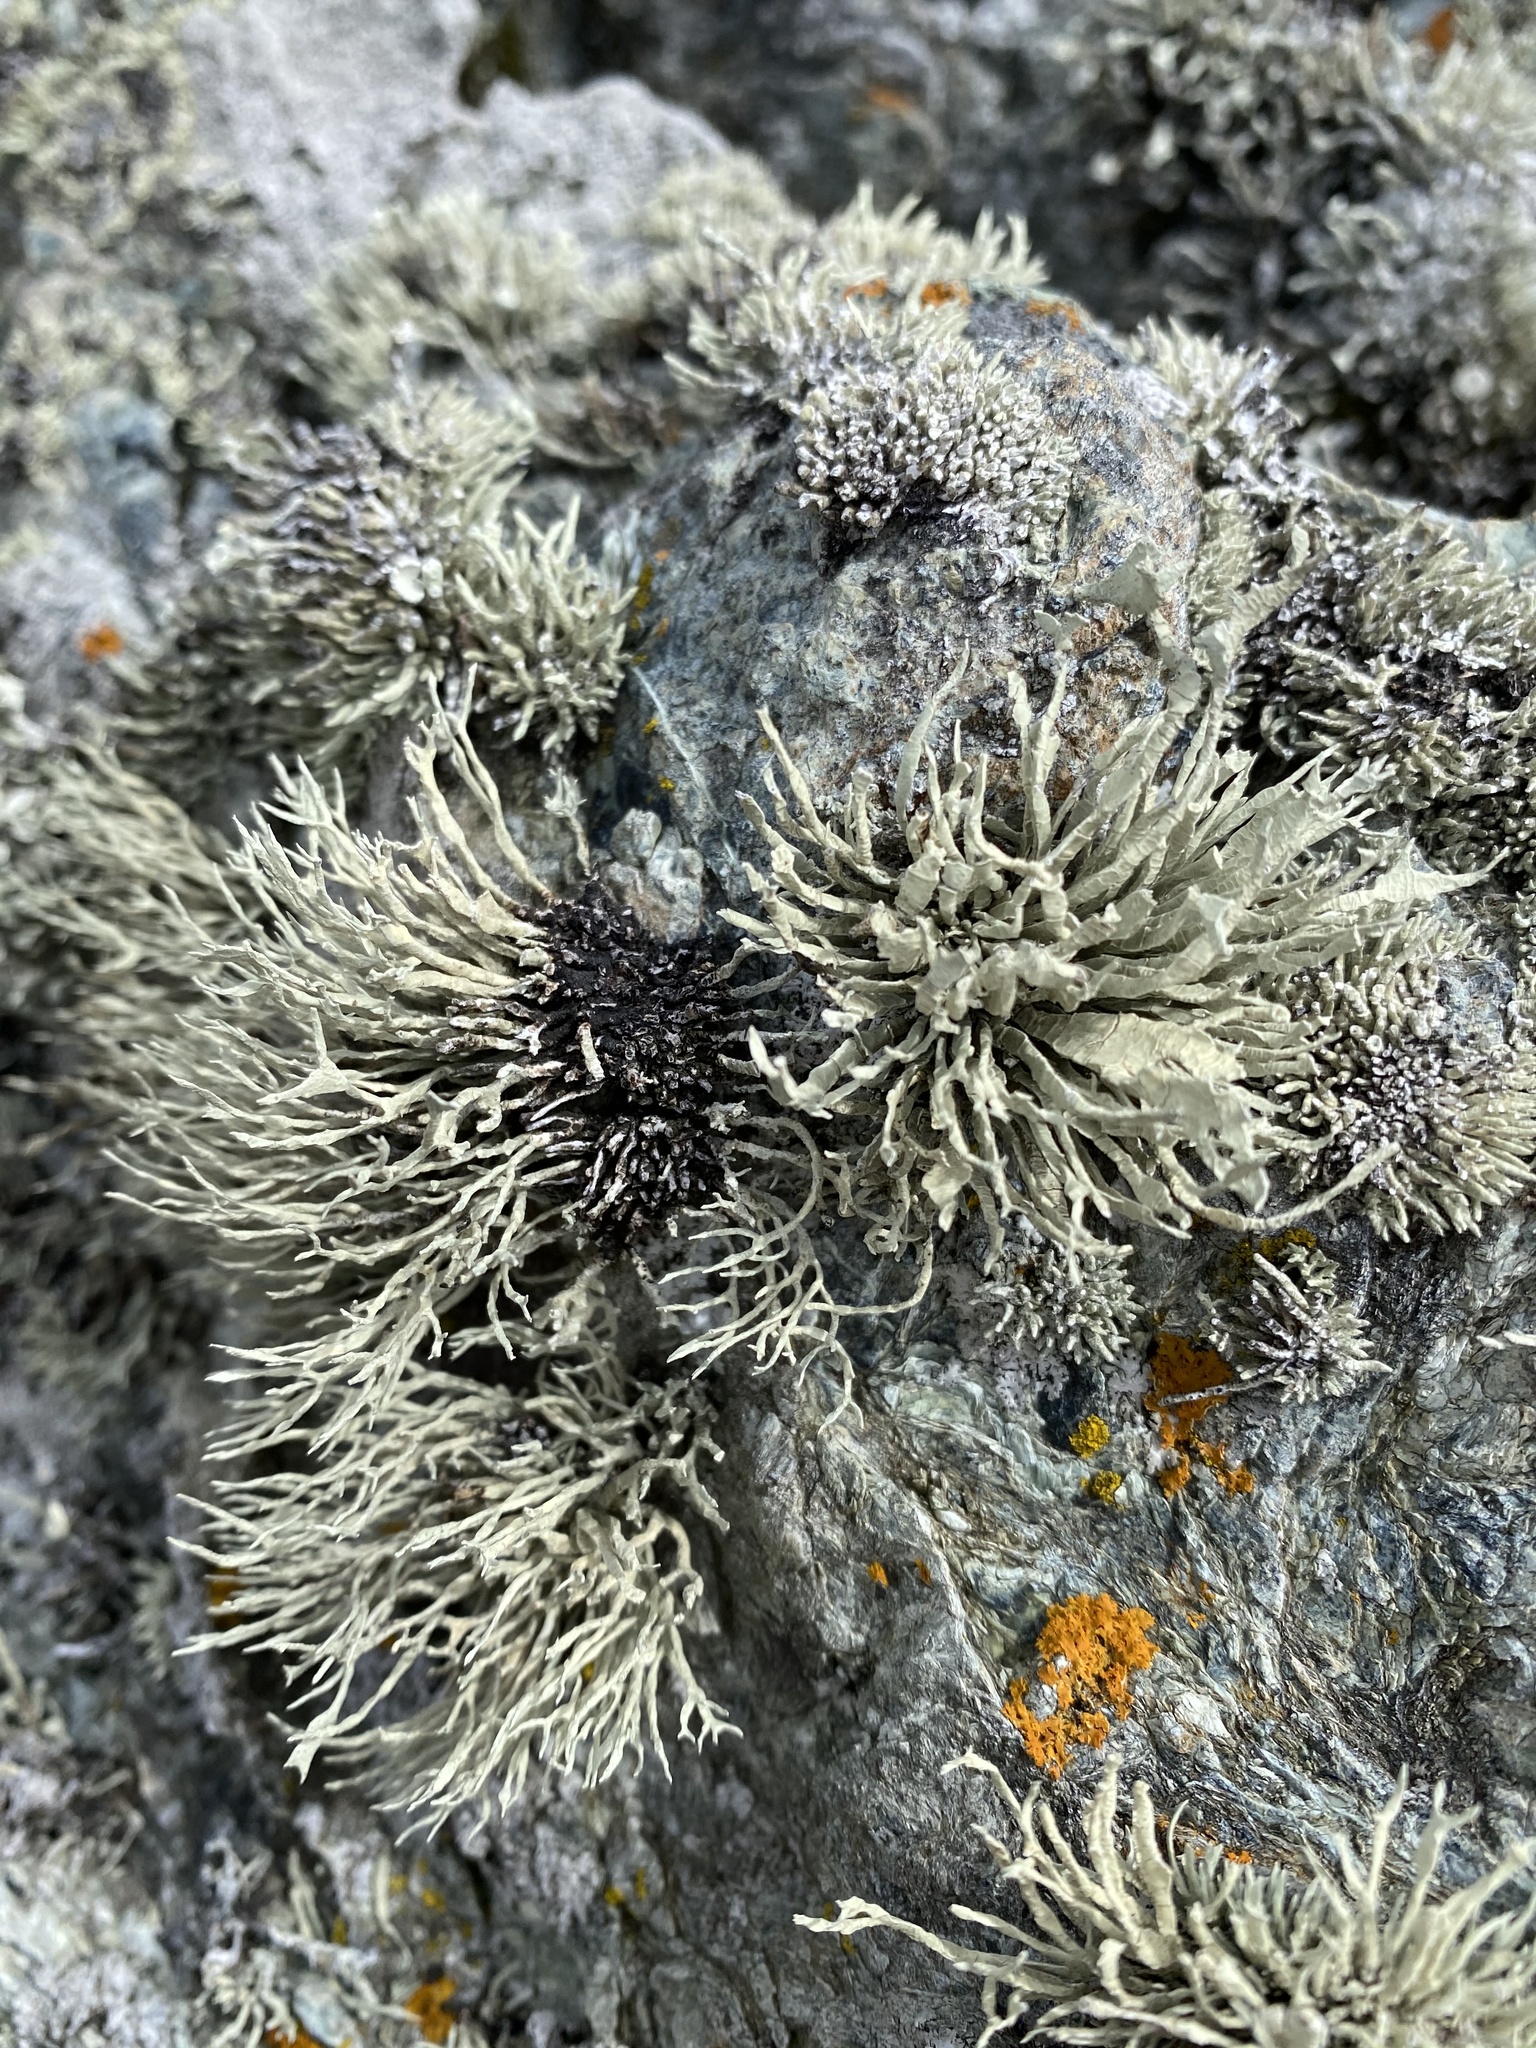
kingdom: Fungi
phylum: Ascomycota
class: Lecanoromycetes
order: Lecanorales
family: Ramalinaceae
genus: Niebla
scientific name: Niebla homalea
